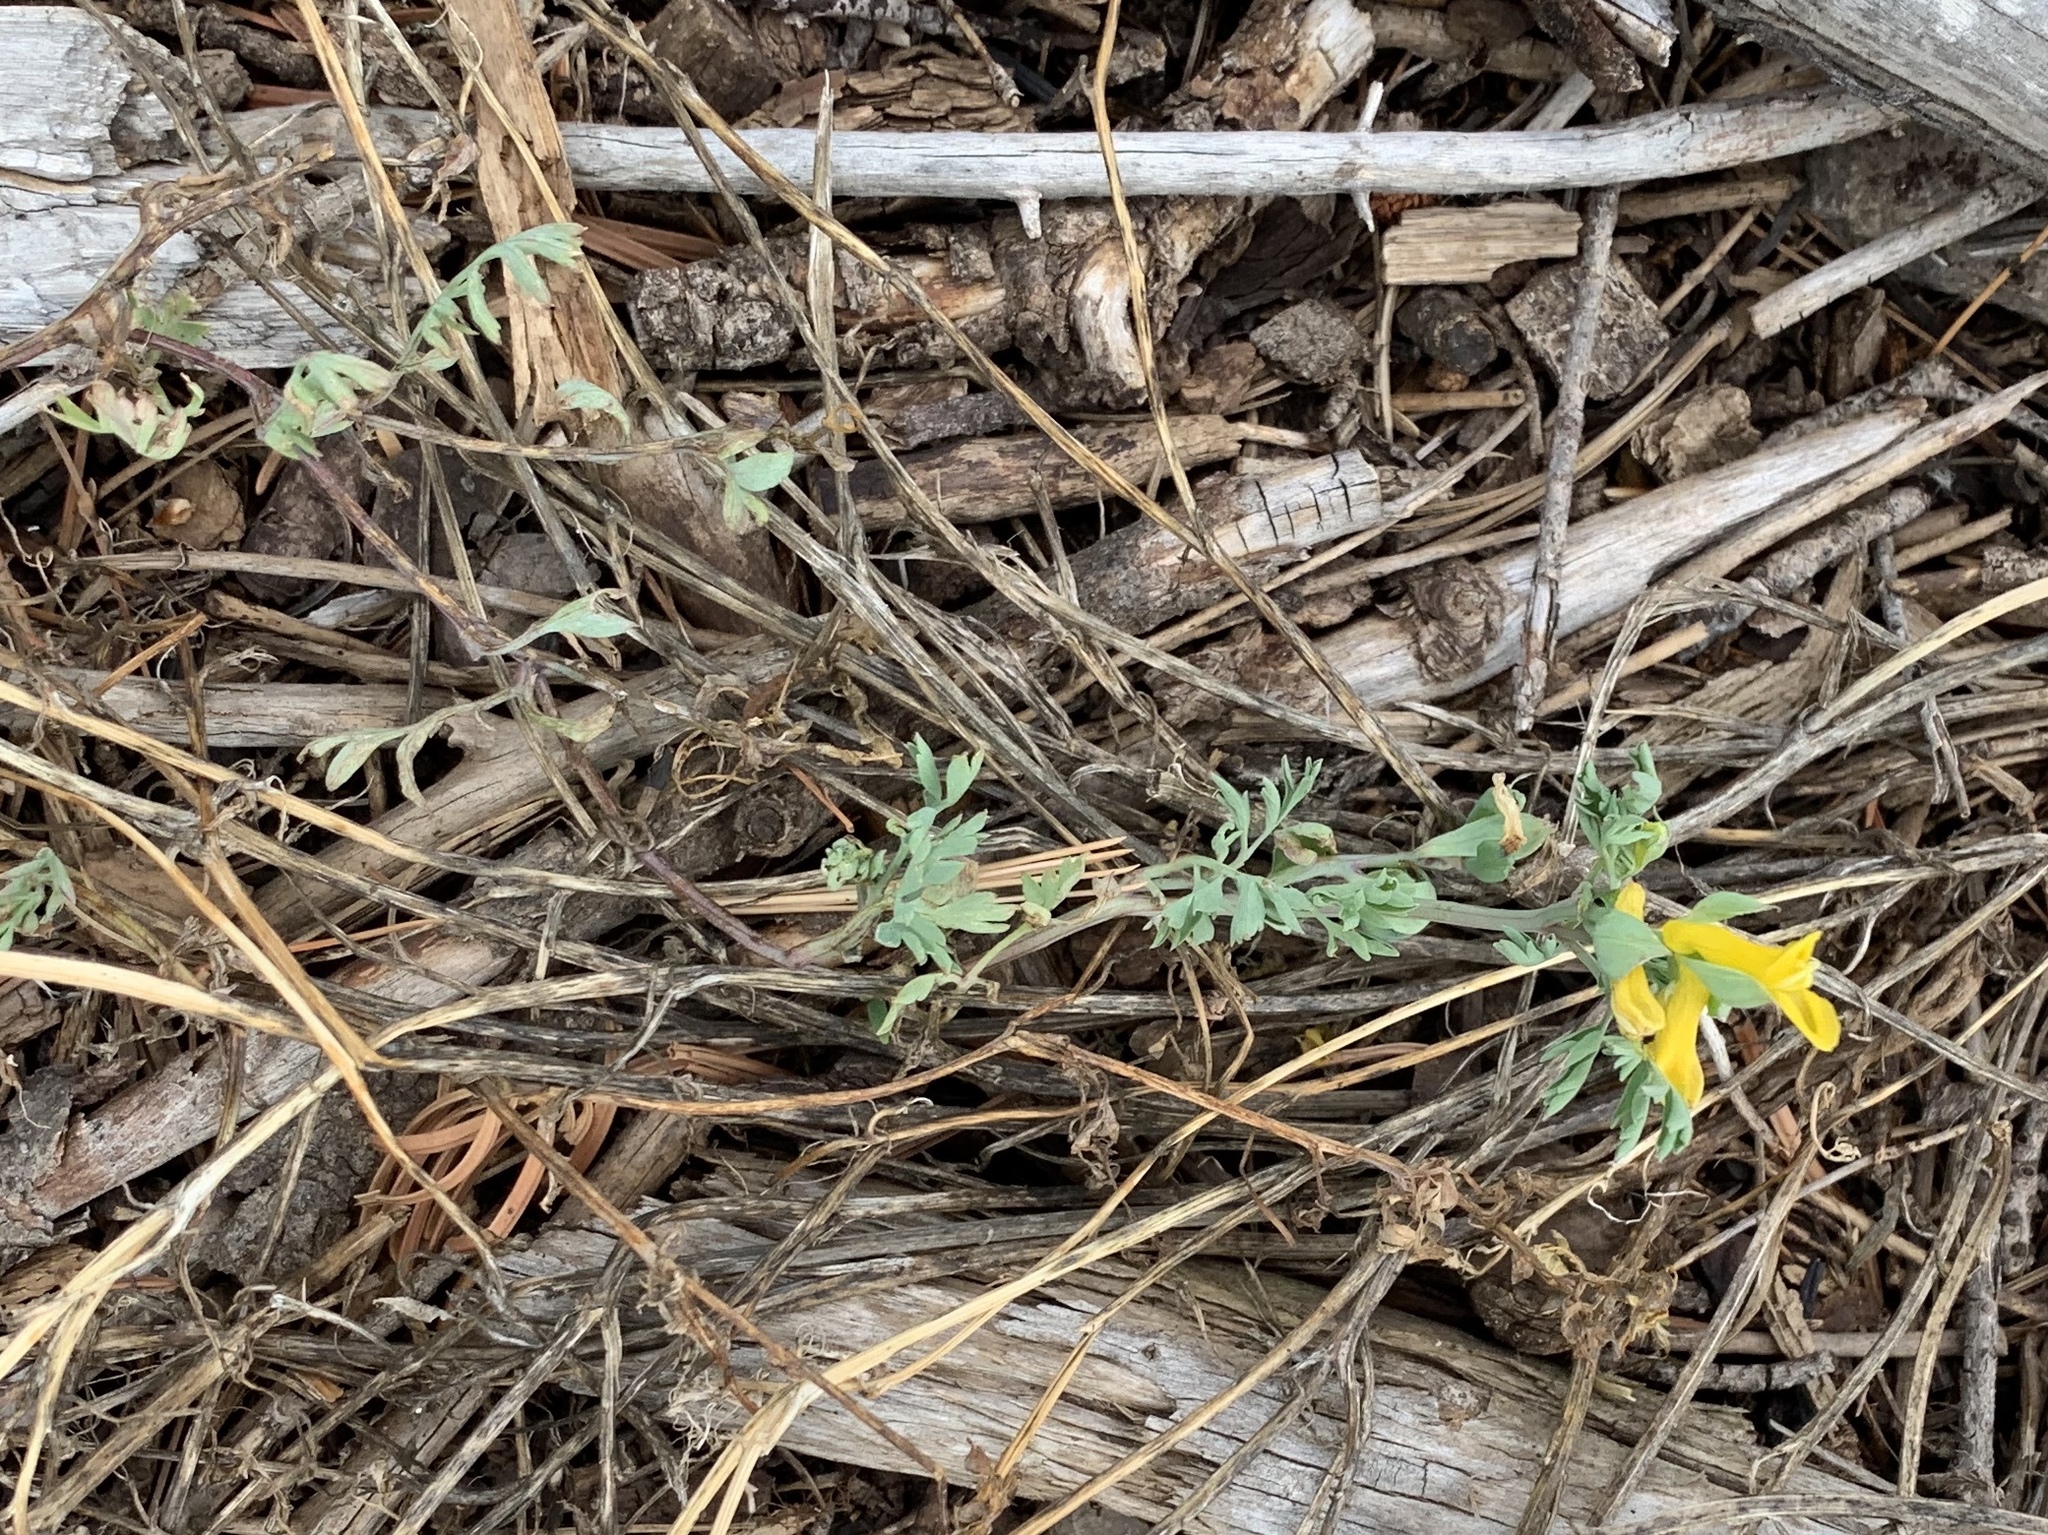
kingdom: Plantae
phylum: Tracheophyta
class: Magnoliopsida
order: Ranunculales
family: Papaveraceae
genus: Corydalis
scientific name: Corydalis aurea
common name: Golden corydalis
